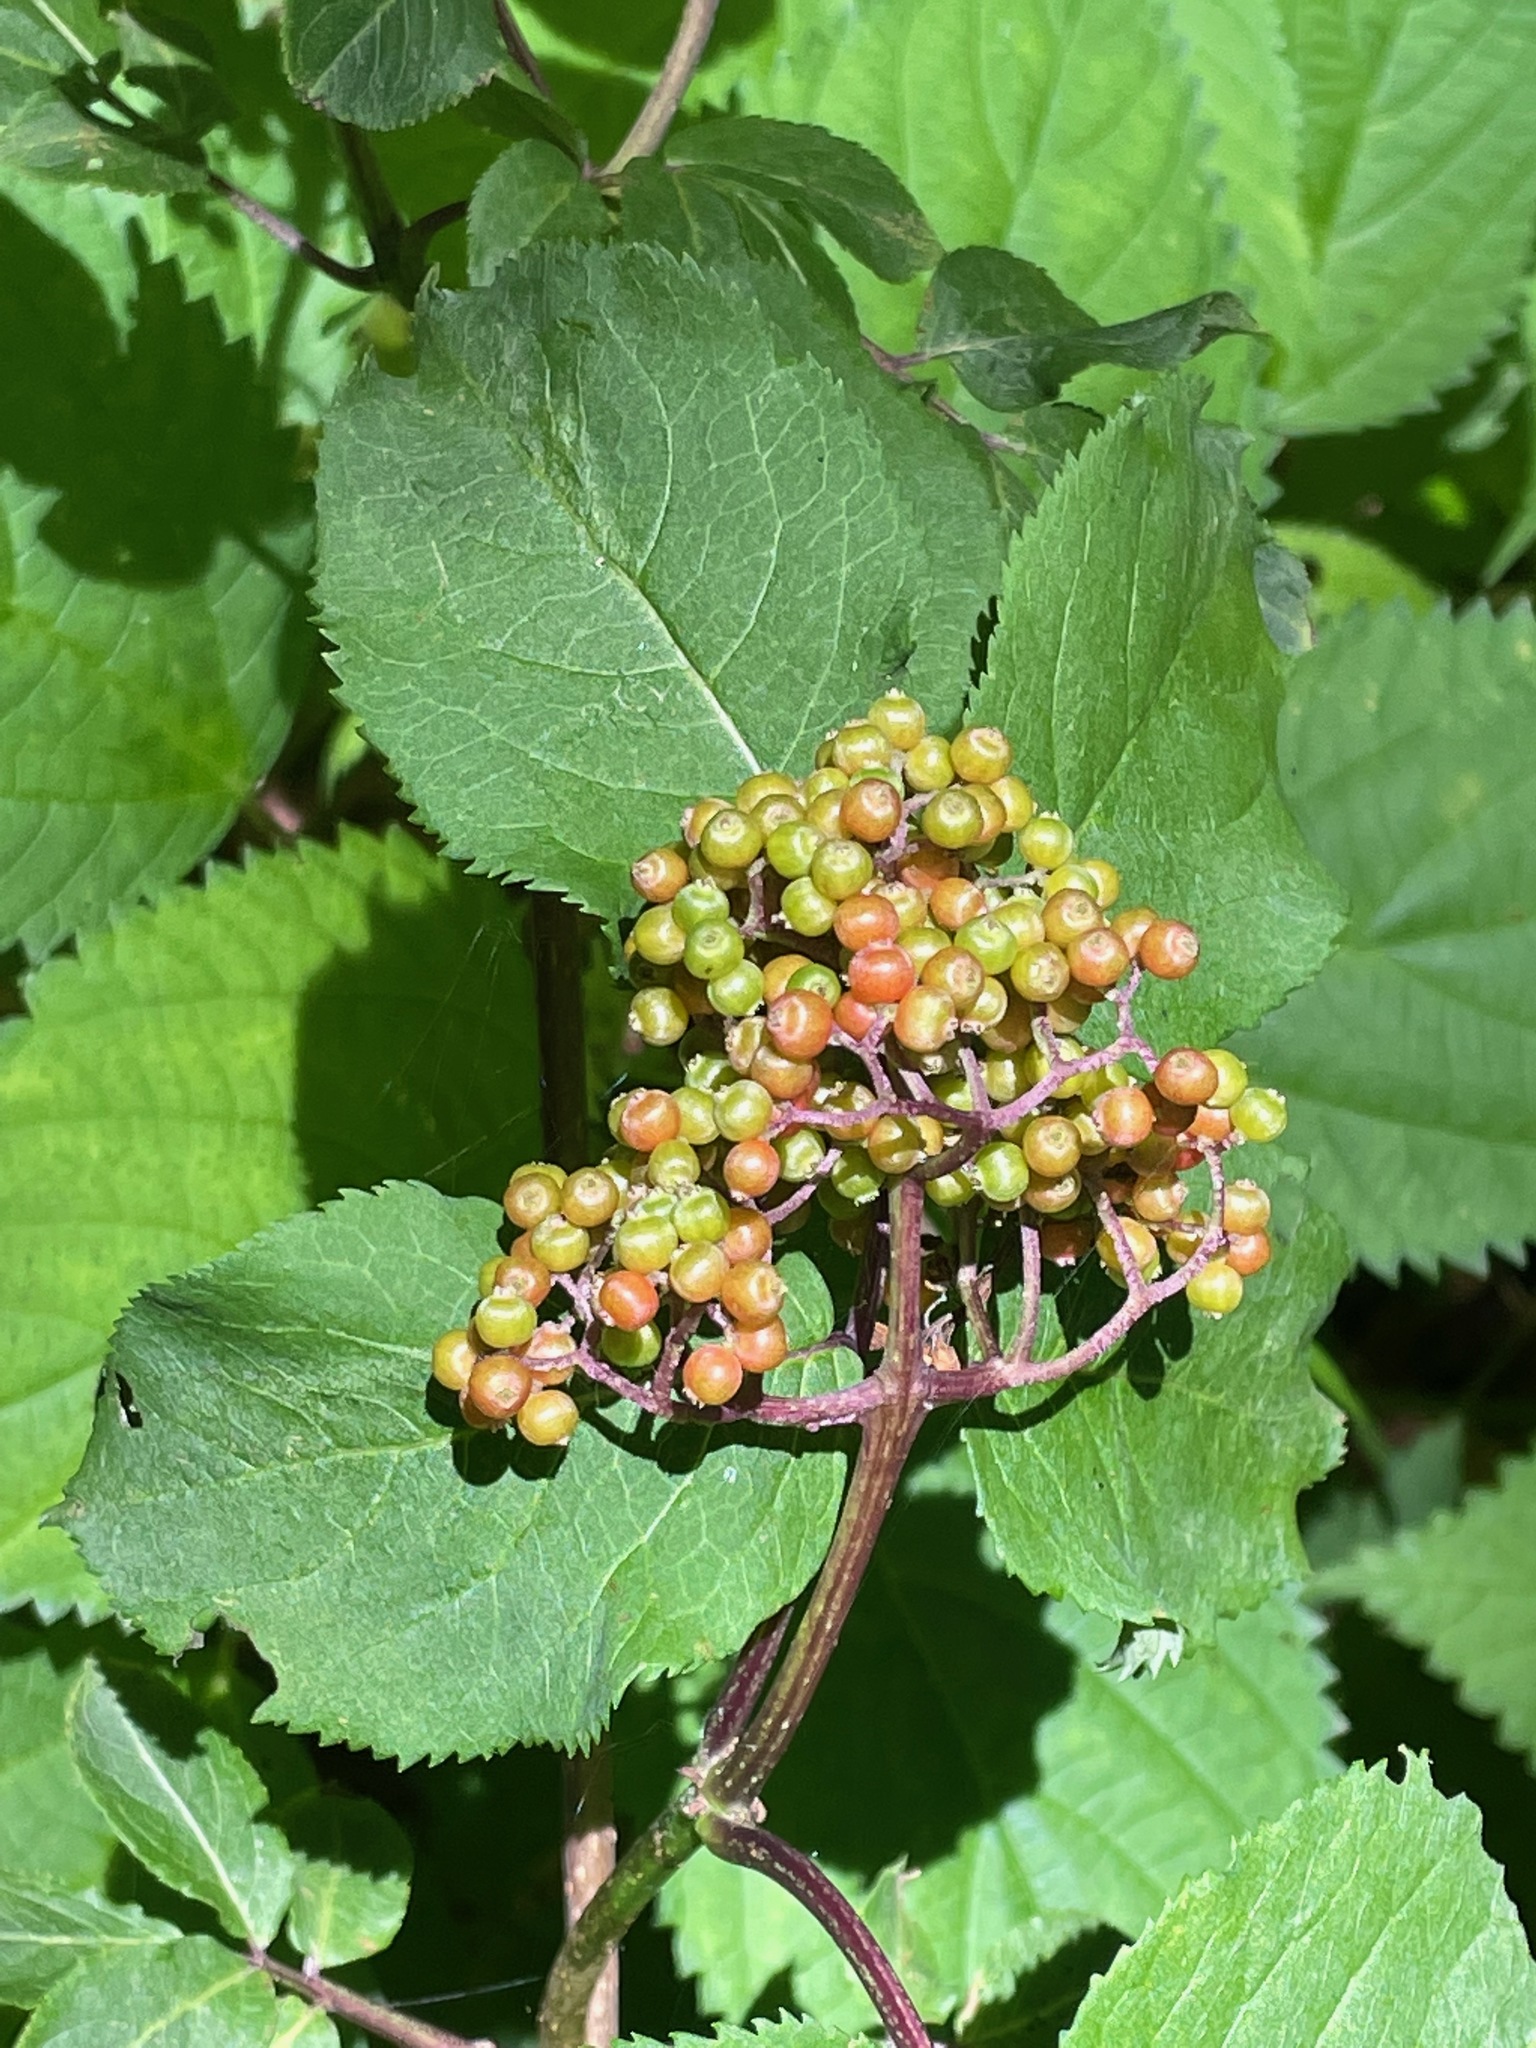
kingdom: Plantae
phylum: Tracheophyta
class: Magnoliopsida
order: Apiales
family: Araliaceae
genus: Aralia
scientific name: Aralia racemosa
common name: American-spikenard
